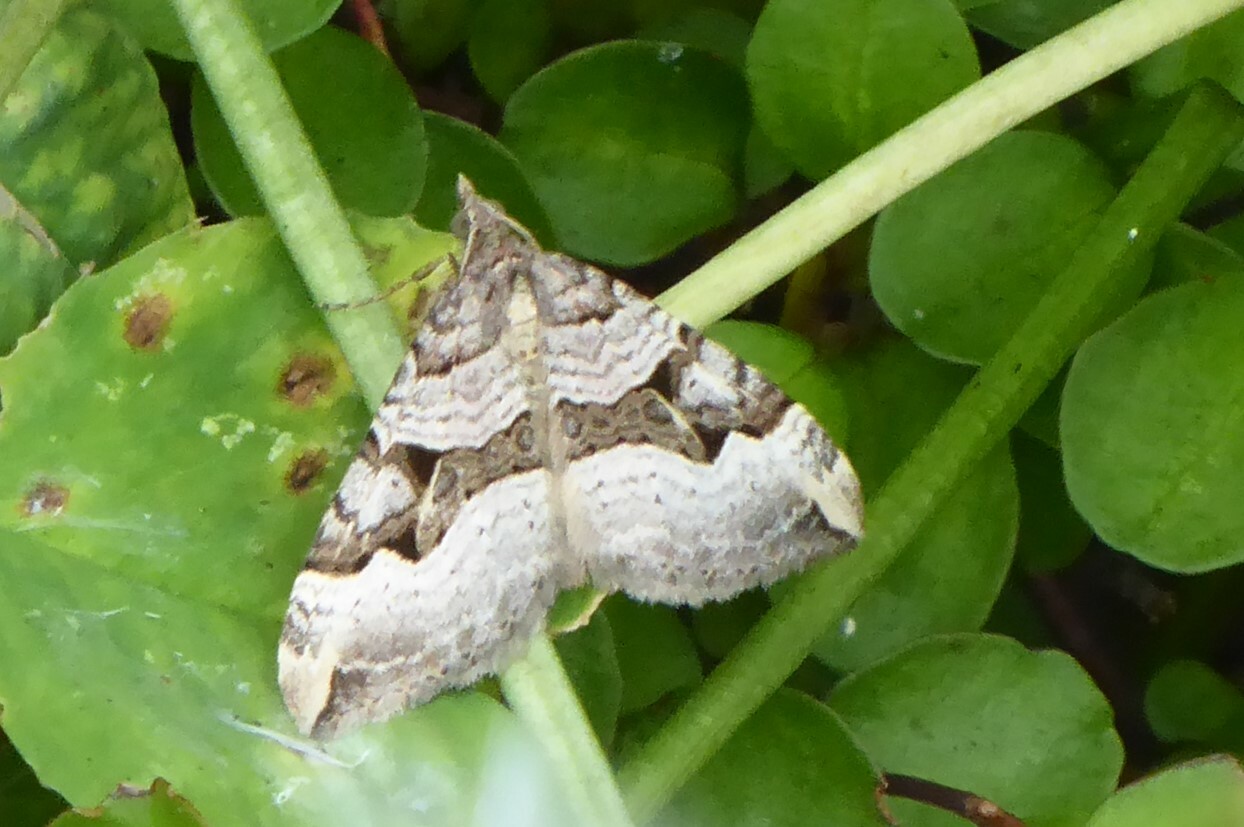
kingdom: Animalia
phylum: Arthropoda
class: Insecta
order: Lepidoptera
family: Geometridae
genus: Xanthorhoe
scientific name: Xanthorhoe semifissata
